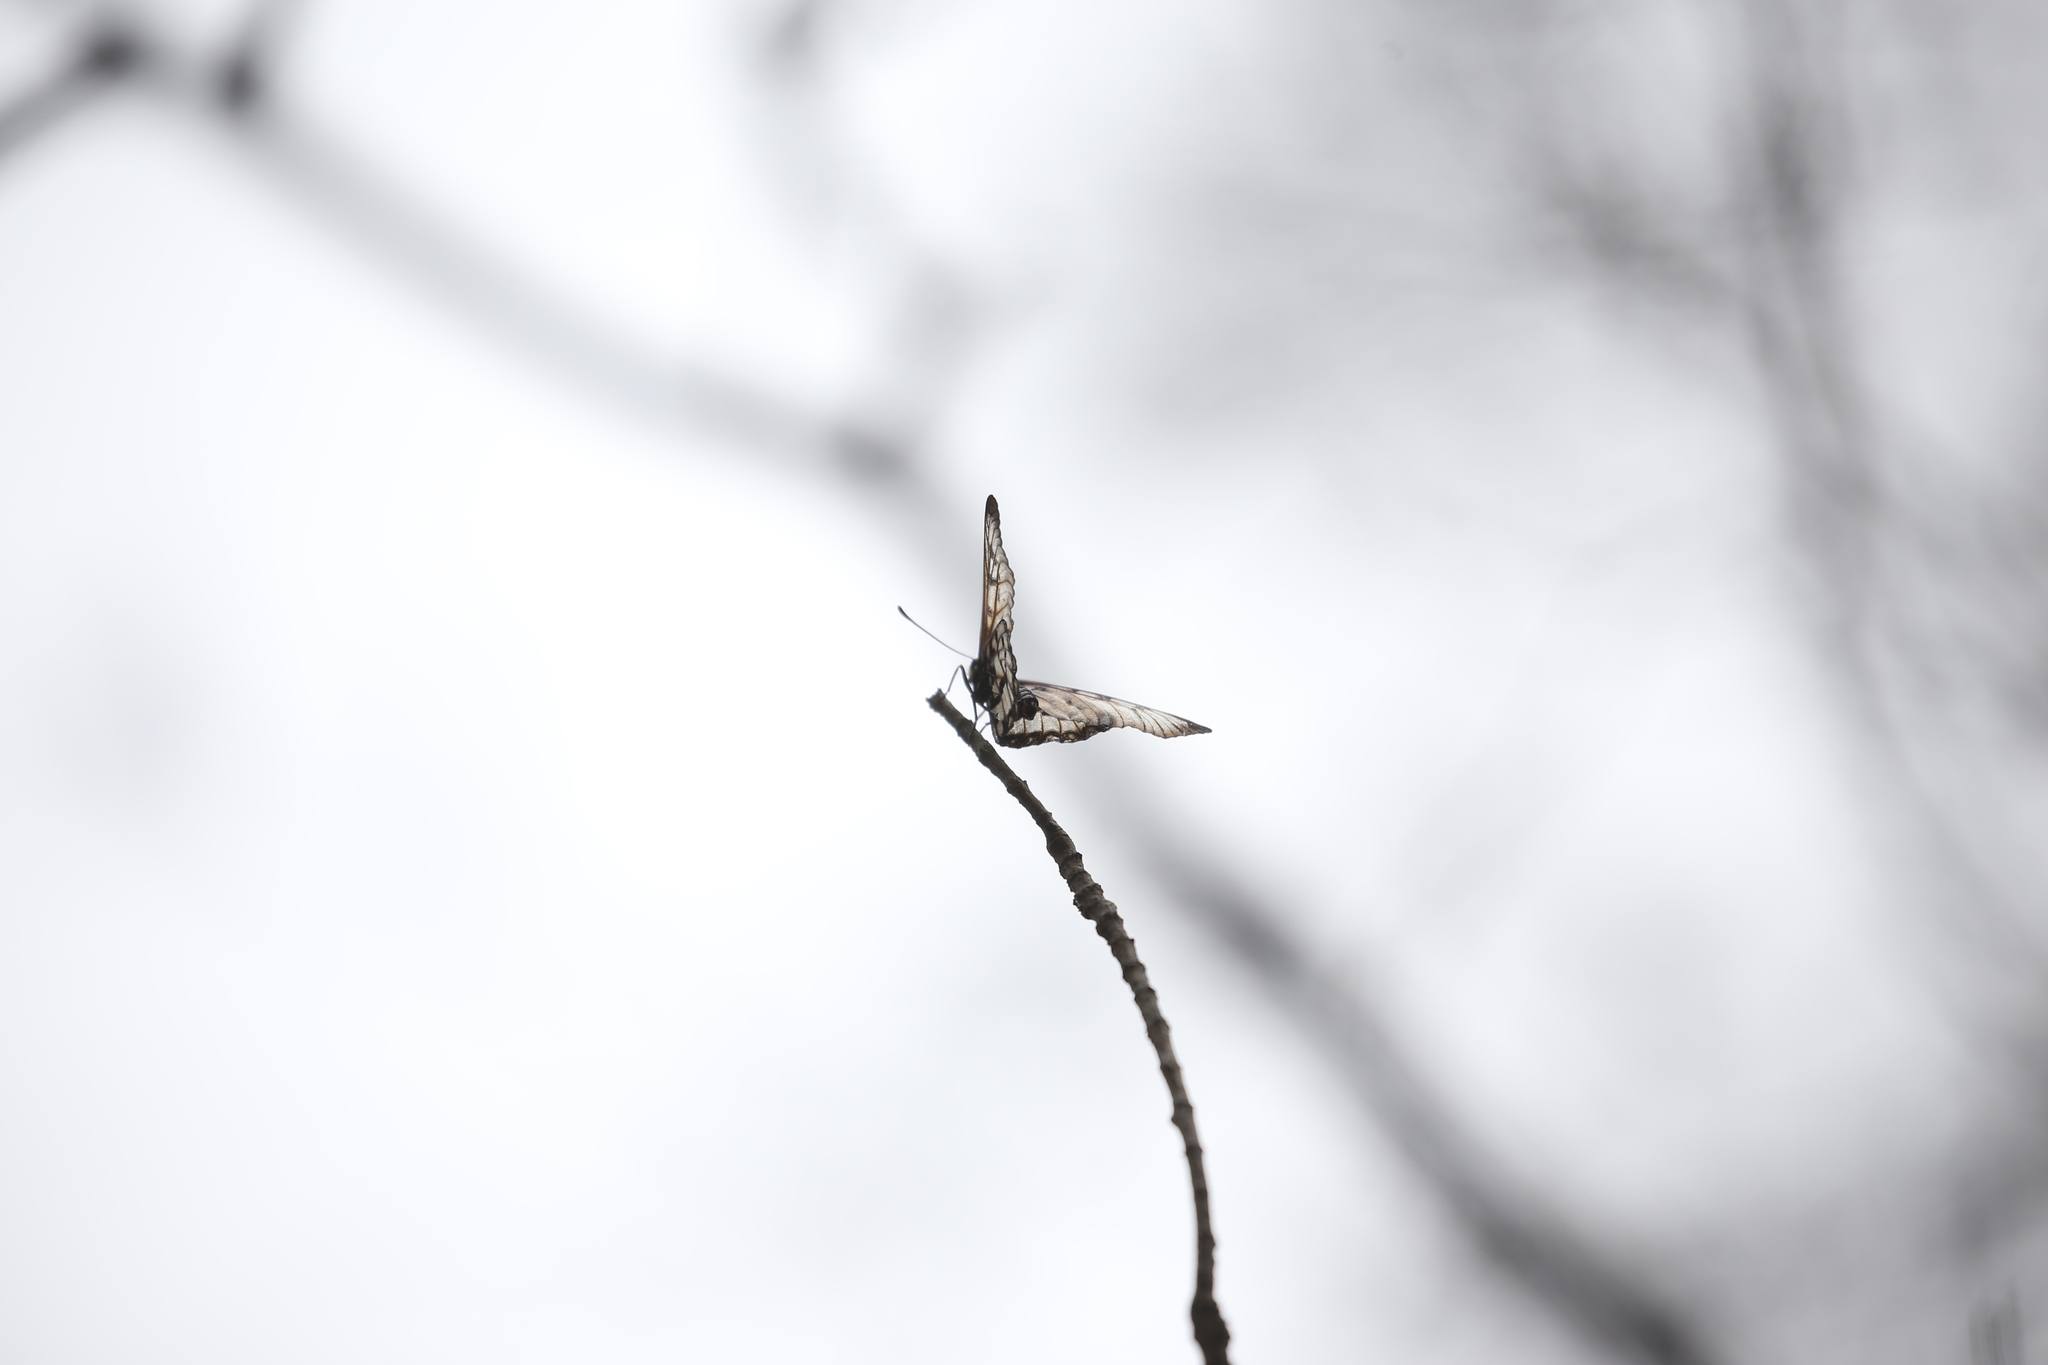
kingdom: Animalia
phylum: Arthropoda
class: Insecta
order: Lepidoptera
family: Nymphalidae
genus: Acraea
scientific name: Acraea andromacha
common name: Glasswing
